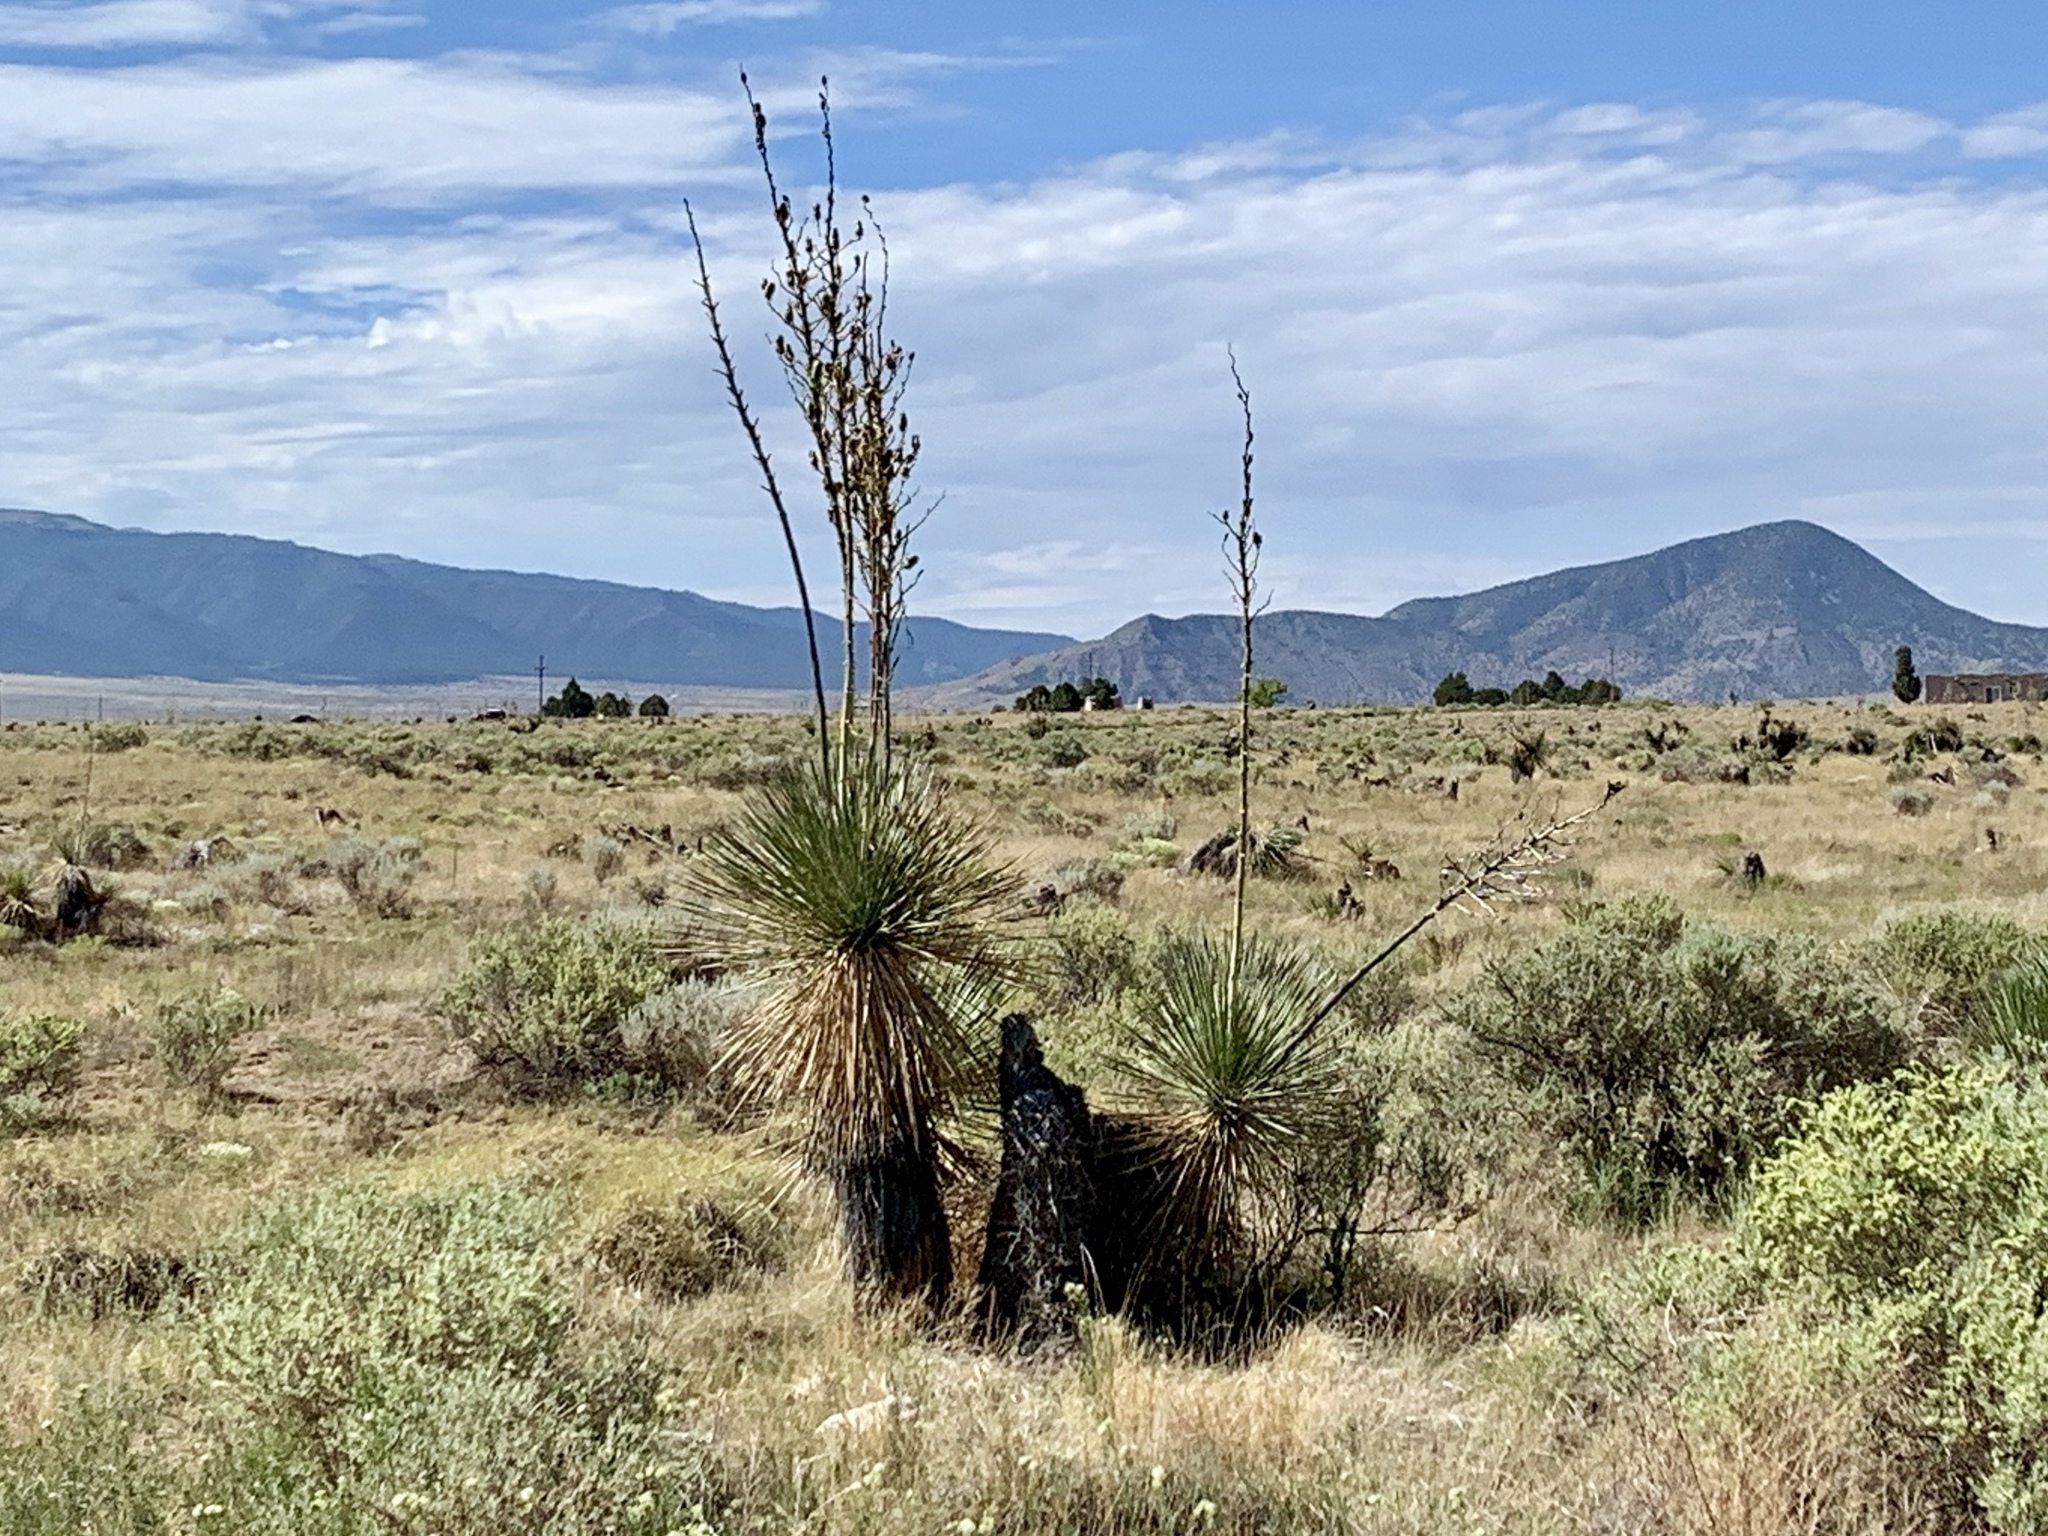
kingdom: Plantae
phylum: Tracheophyta
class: Liliopsida
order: Asparagales
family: Asparagaceae
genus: Yucca
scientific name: Yucca elata
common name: Palmella
